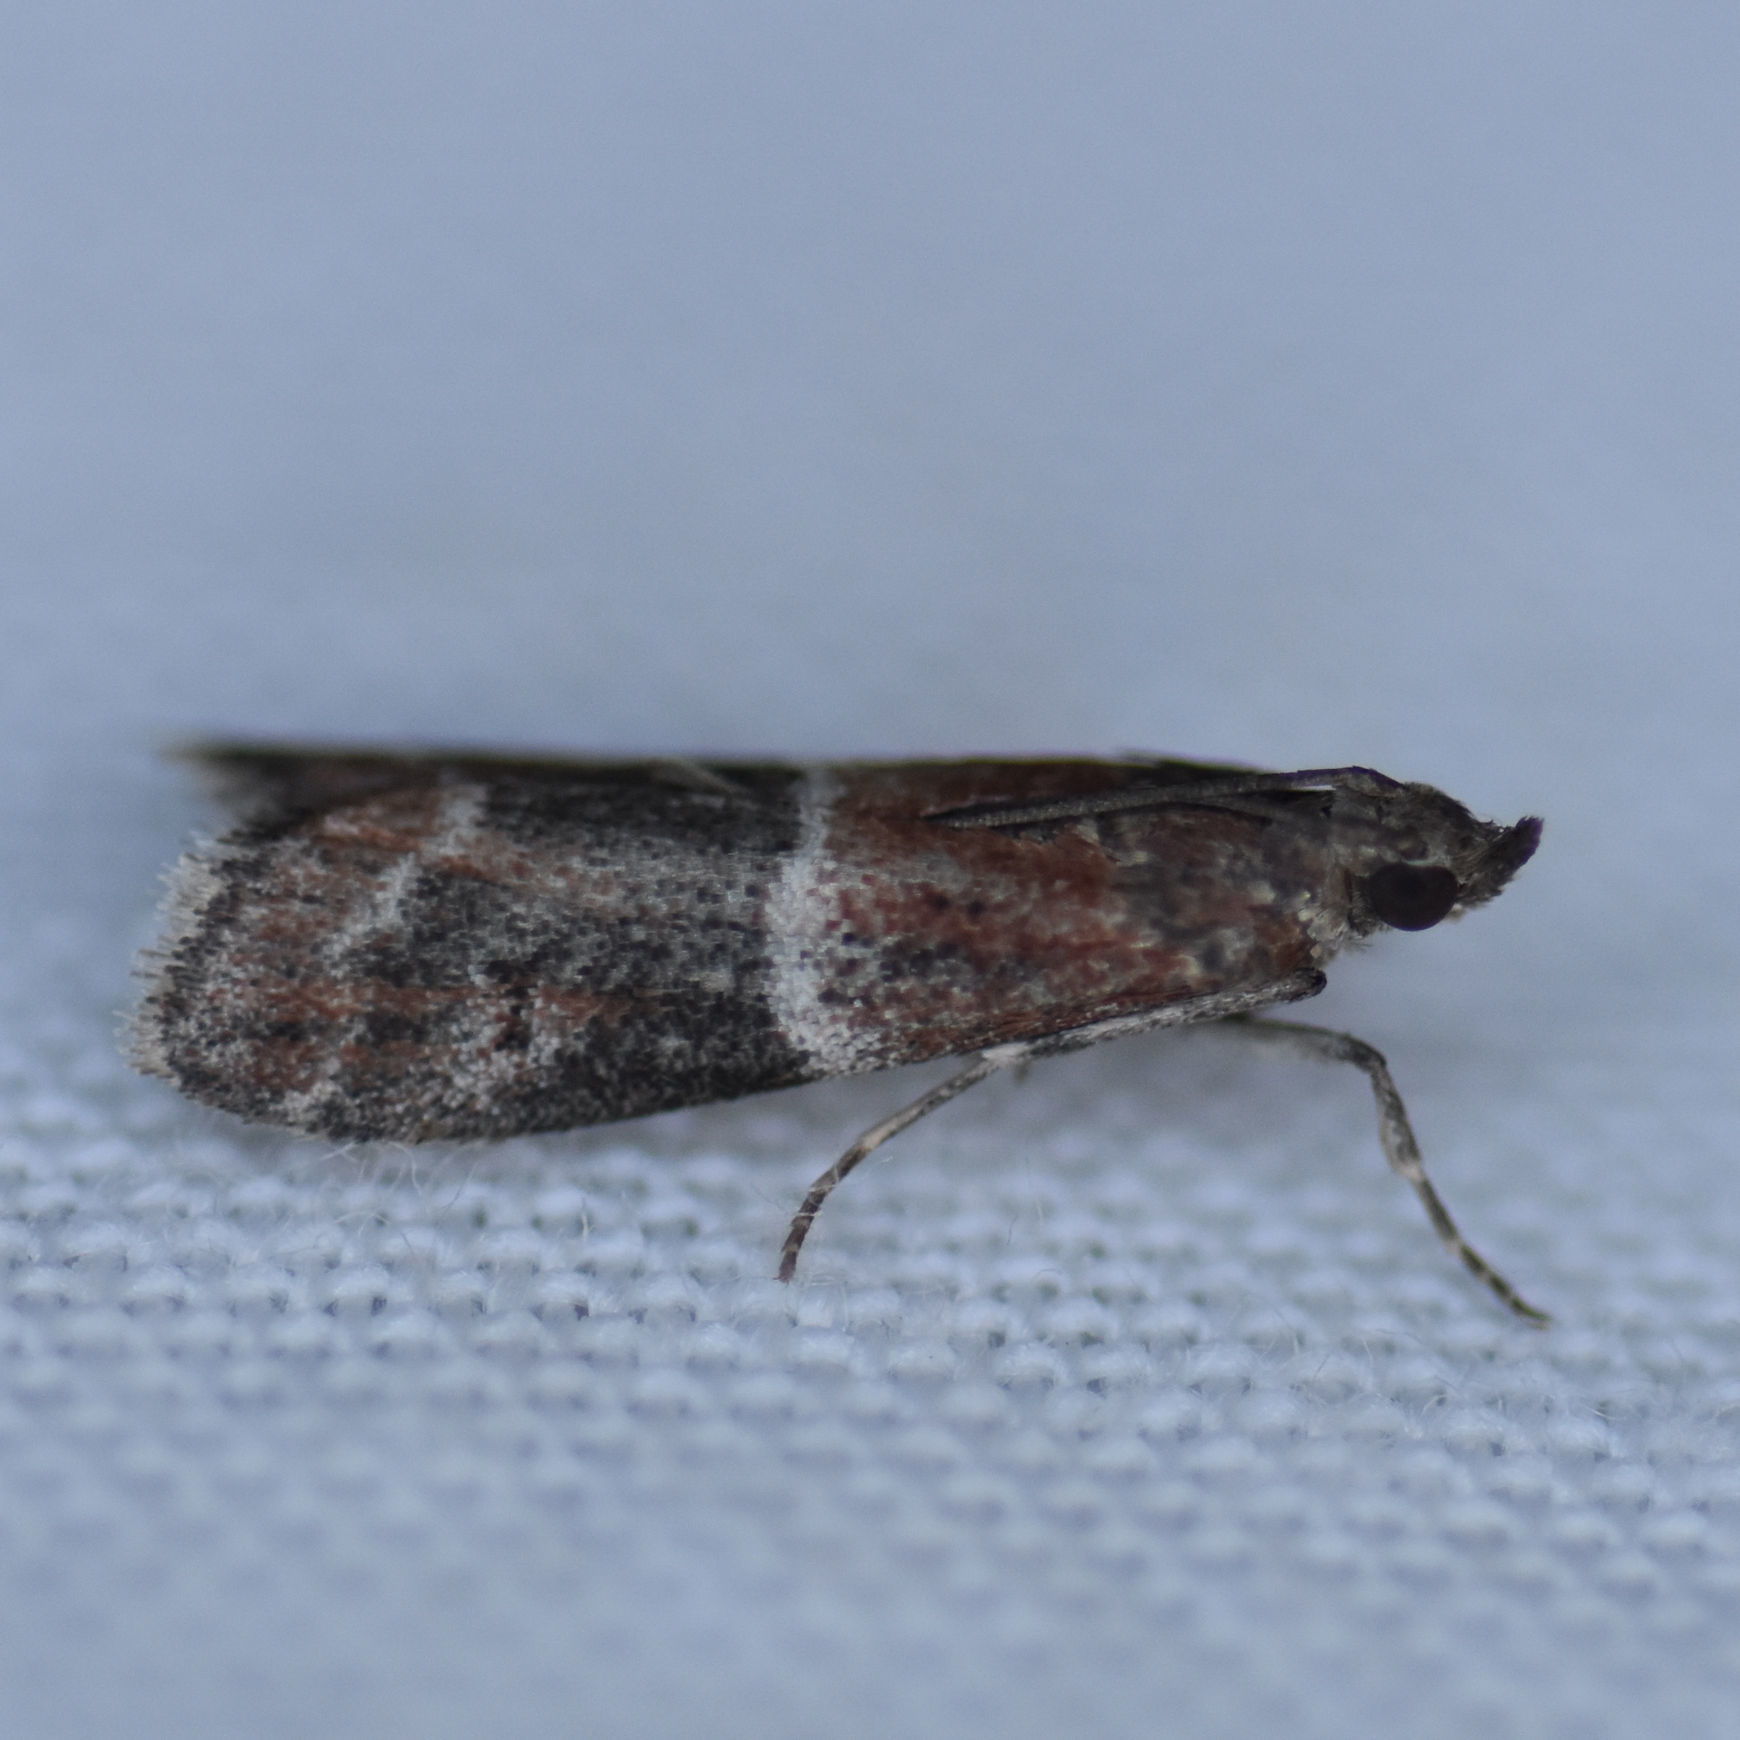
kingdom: Animalia
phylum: Arthropoda
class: Insecta
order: Lepidoptera
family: Pyralidae
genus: Moodna
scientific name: Moodna ostrinella
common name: Darker moodna moth
